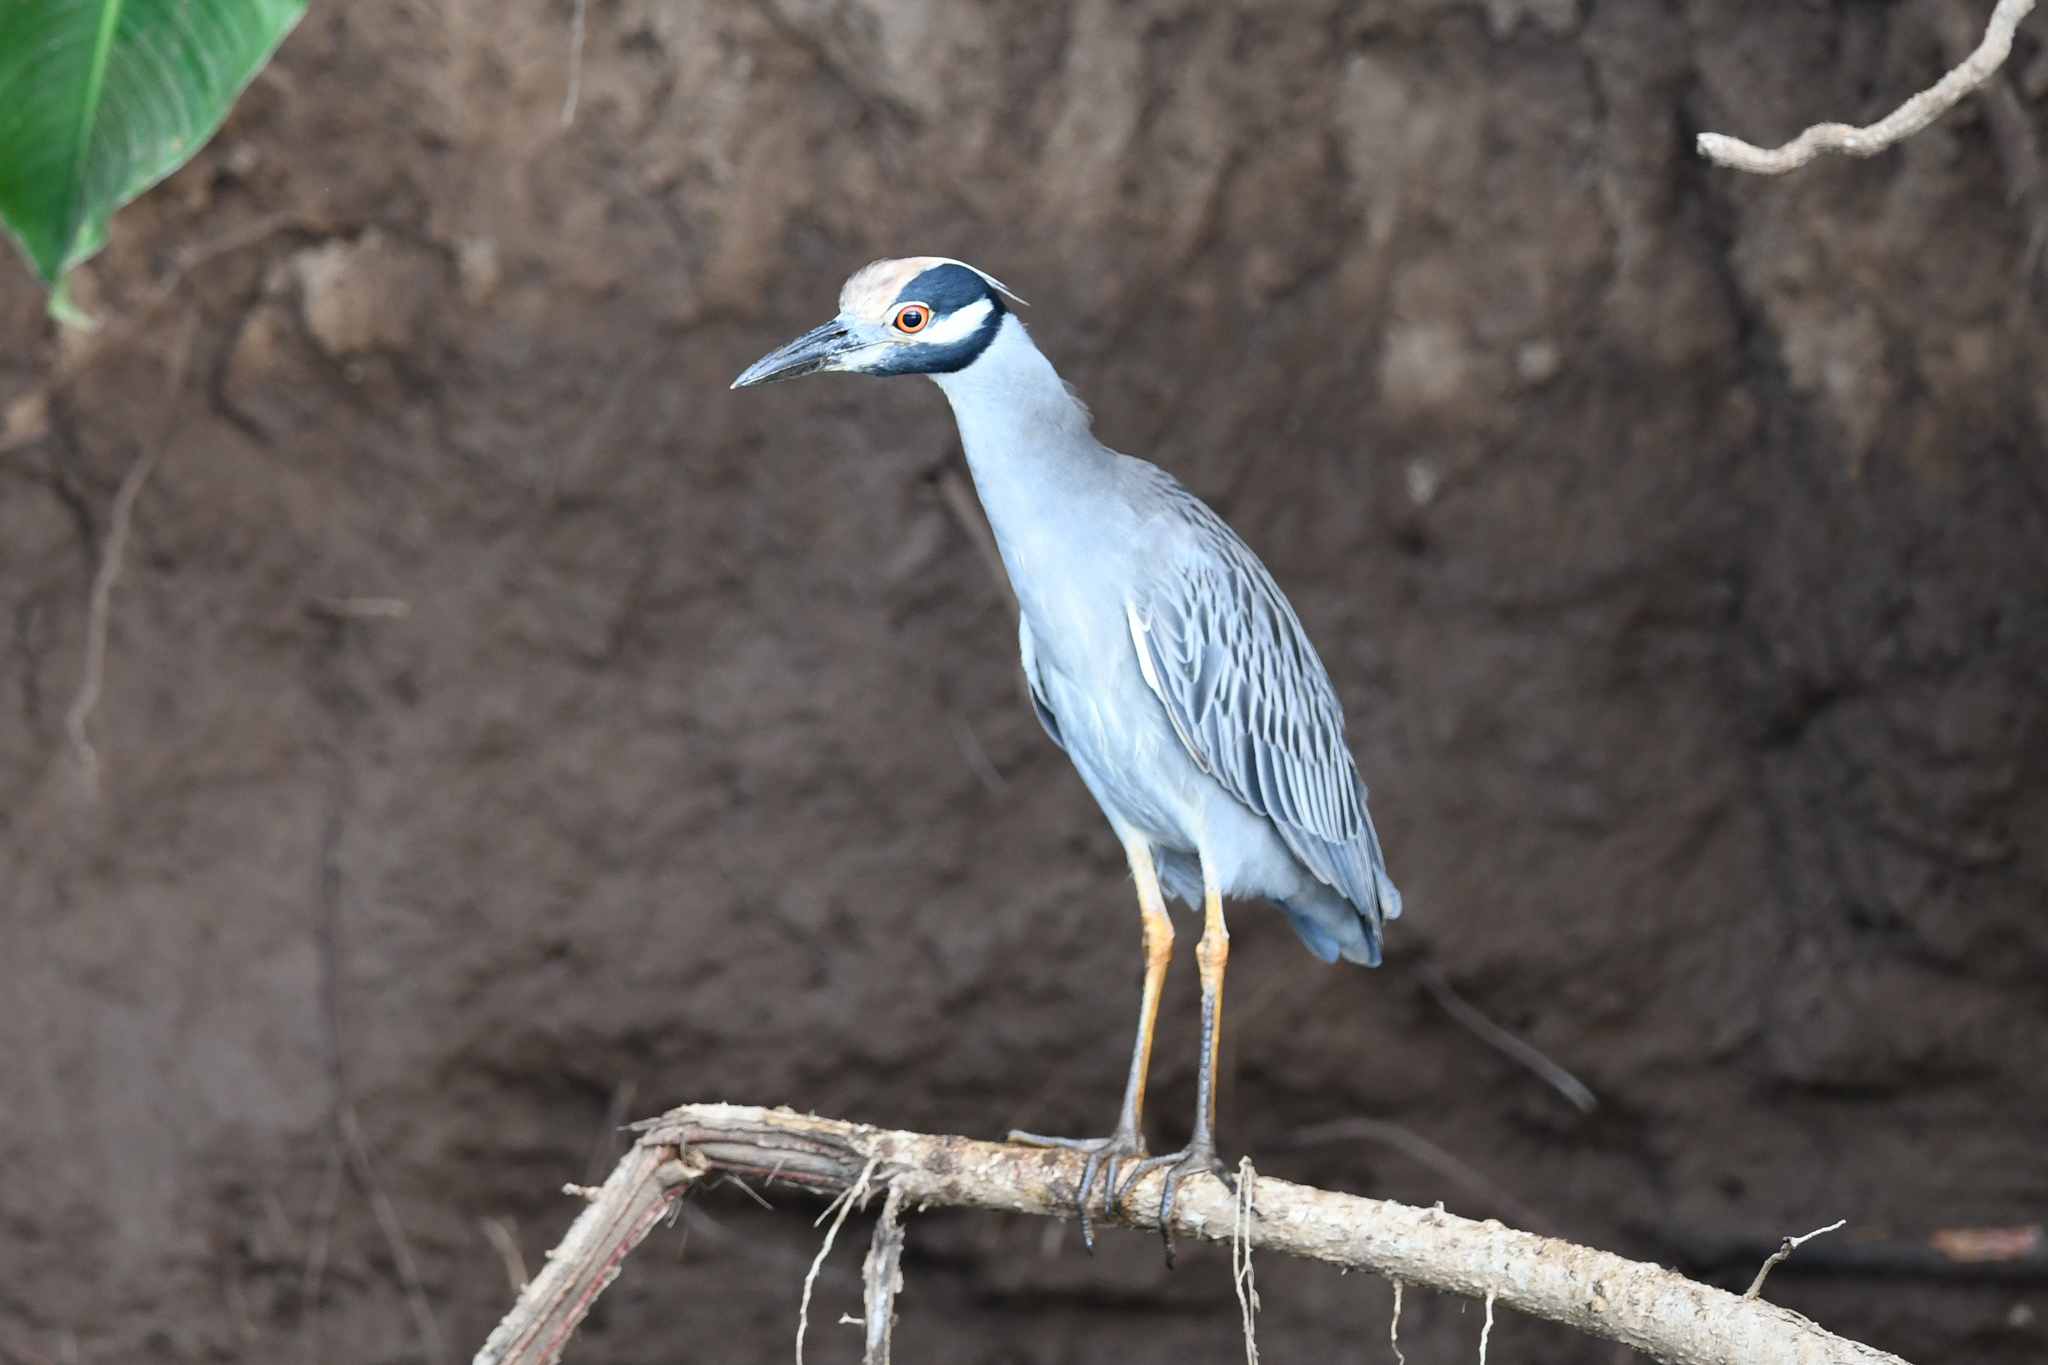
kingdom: Animalia
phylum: Chordata
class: Aves
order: Pelecaniformes
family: Ardeidae
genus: Nyctanassa
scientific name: Nyctanassa violacea
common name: Yellow-crowned night heron
